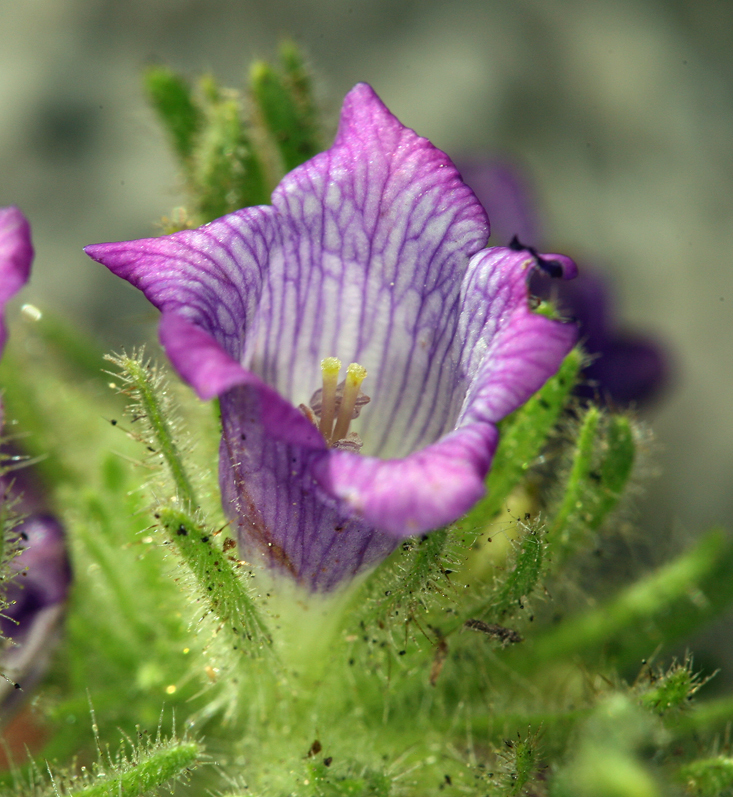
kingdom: Plantae
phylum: Tracheophyta
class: Magnoliopsida
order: Boraginales
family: Namaceae
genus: Nama
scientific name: Nama rothrockii
